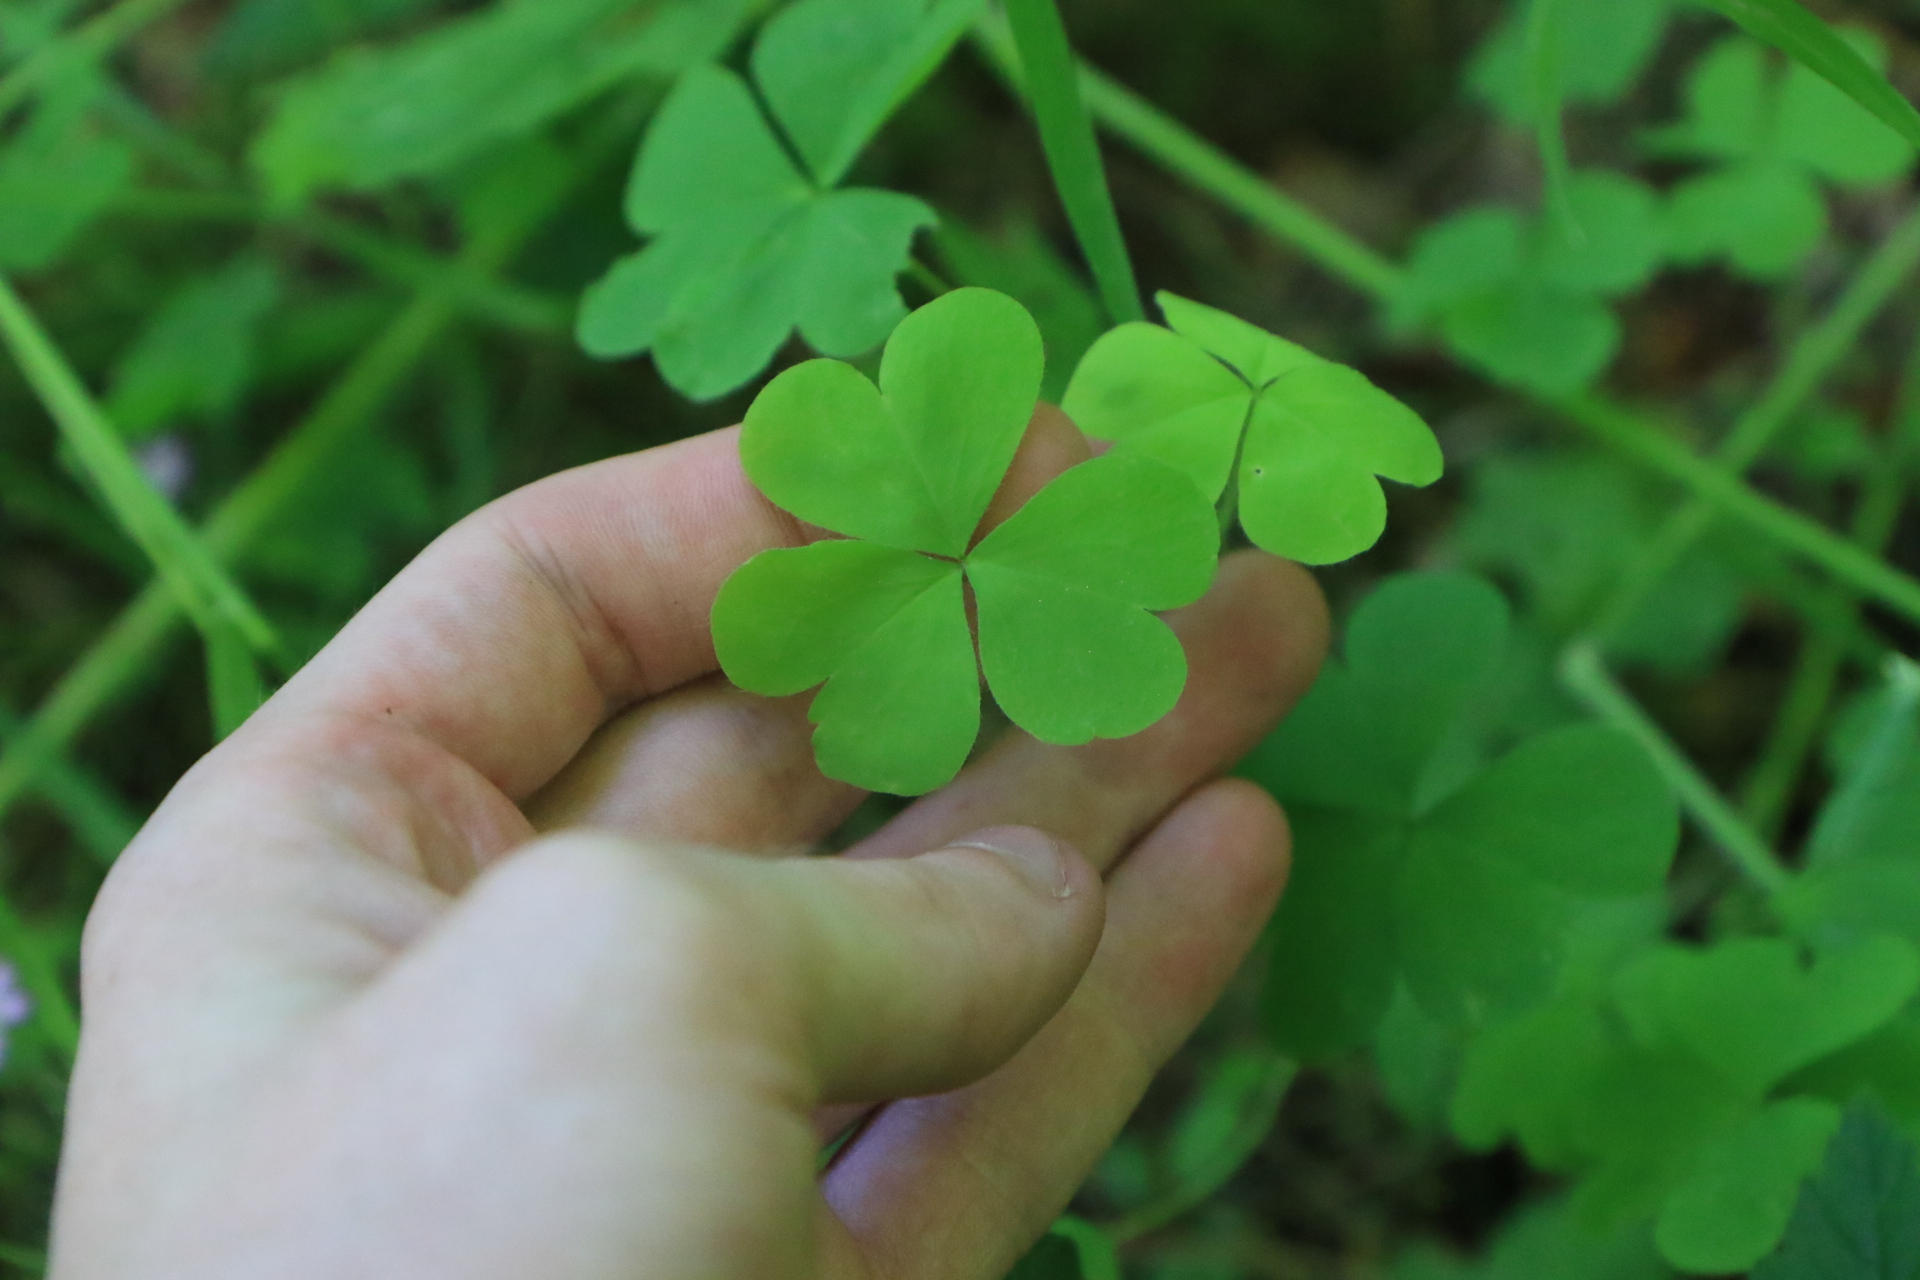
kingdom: Plantae
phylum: Tracheophyta
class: Magnoliopsida
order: Oxalidales
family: Oxalidaceae
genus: Oxalis
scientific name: Oxalis suksdorfii
